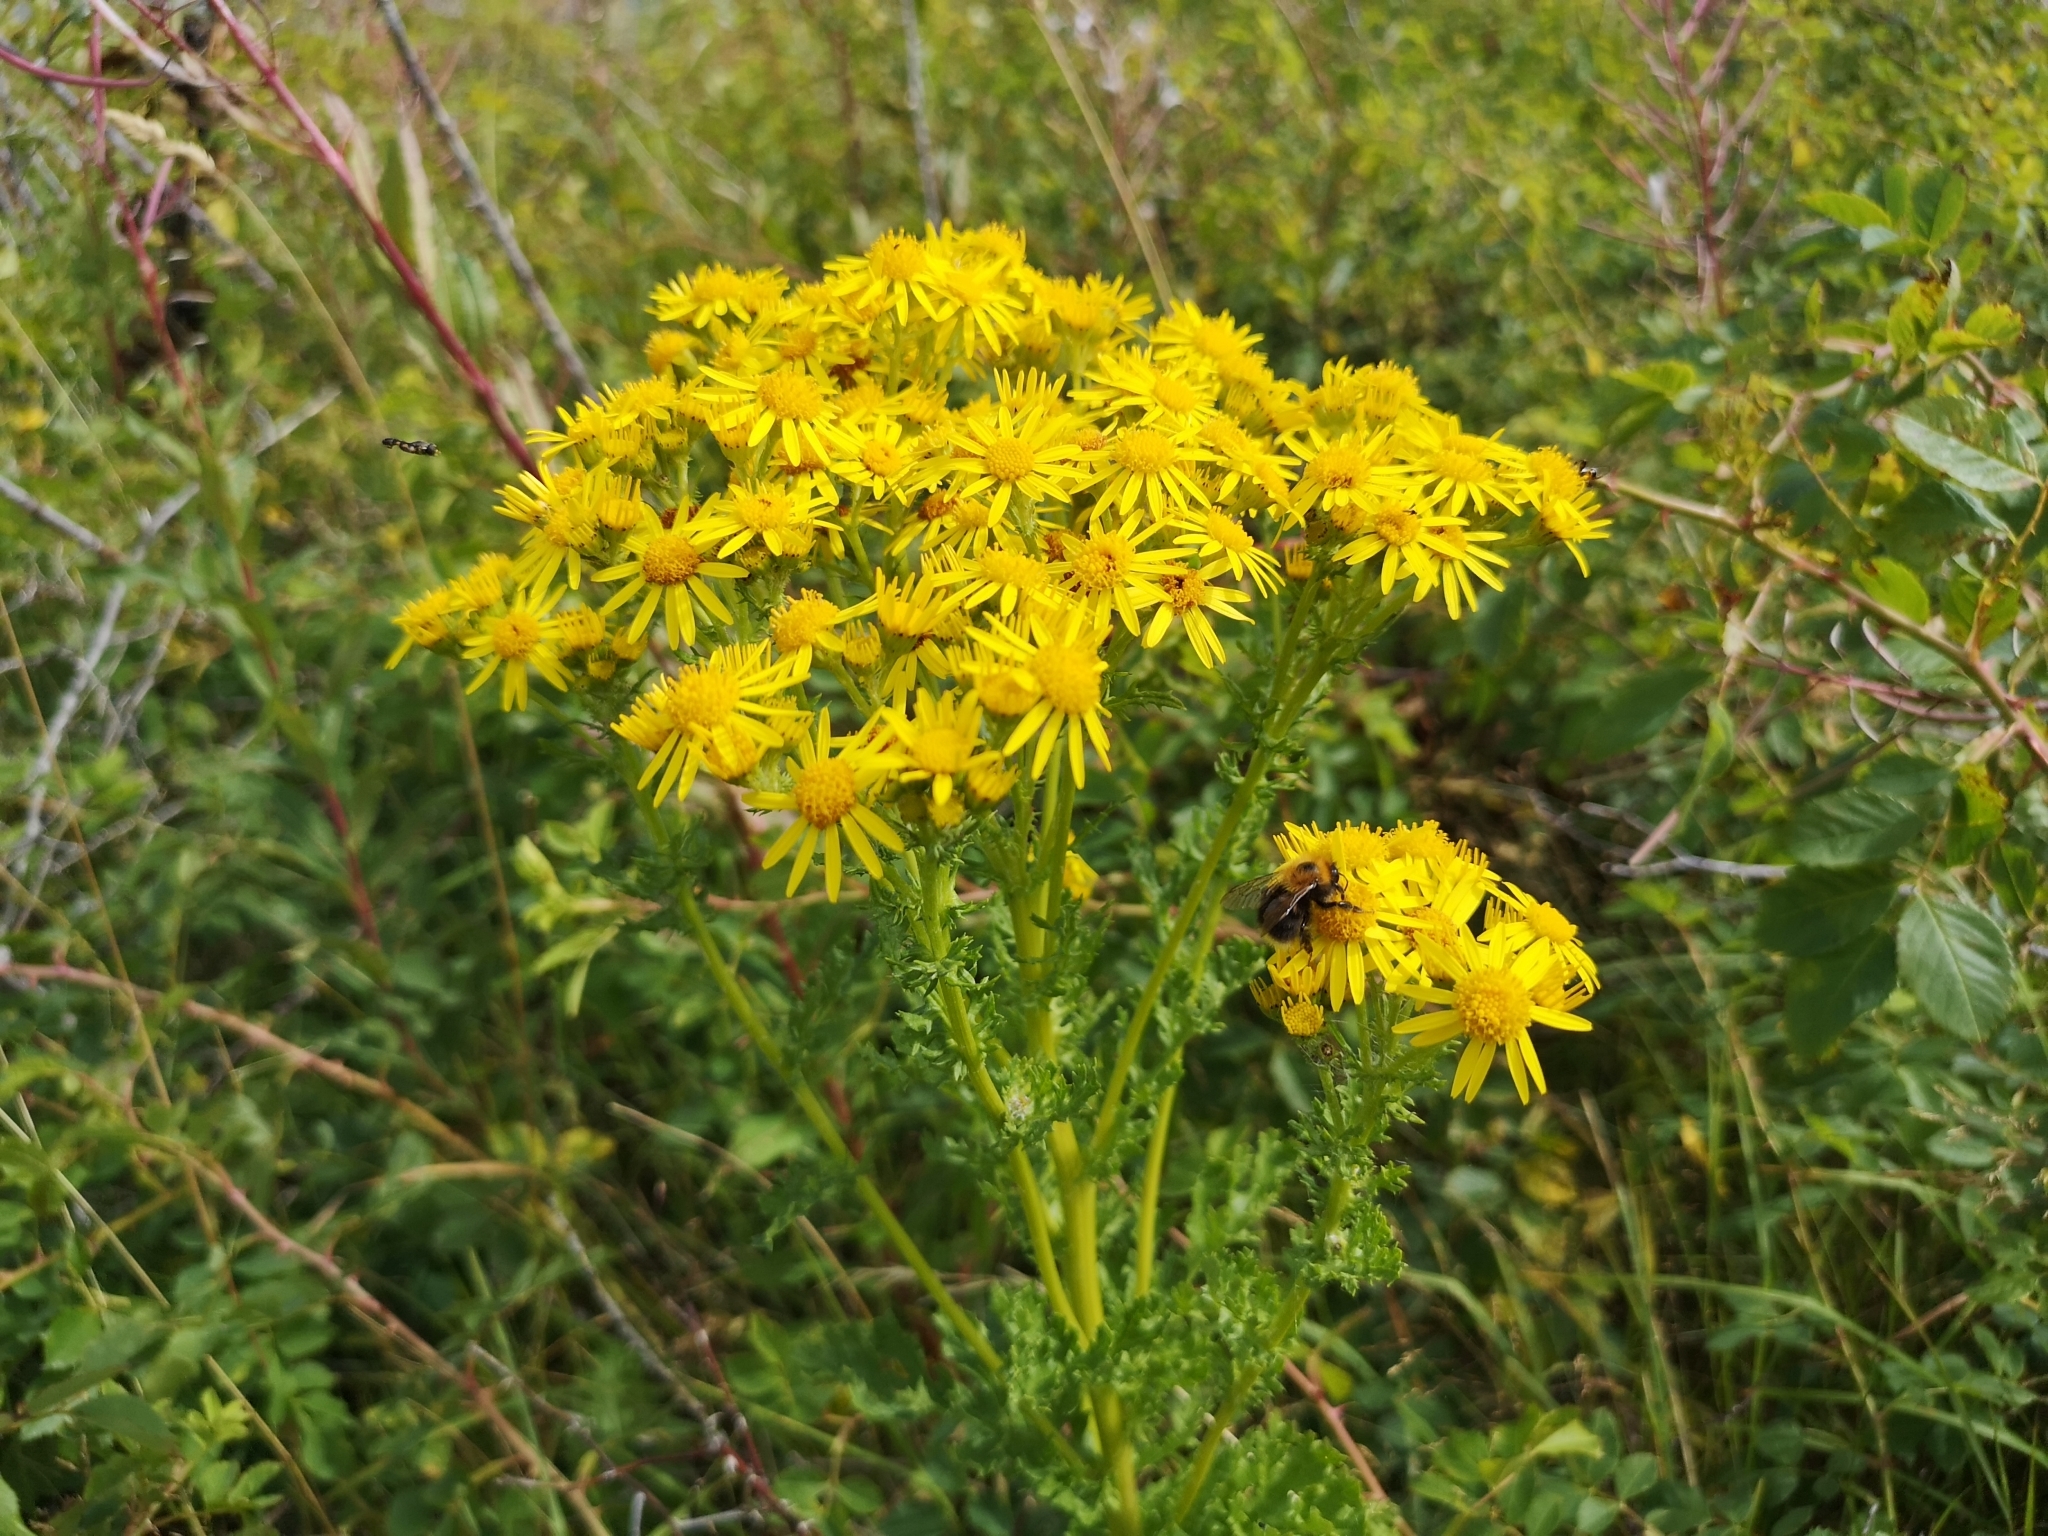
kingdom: Plantae
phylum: Tracheophyta
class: Magnoliopsida
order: Asterales
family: Asteraceae
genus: Jacobaea
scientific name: Jacobaea vulgaris
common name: Stinking willie
